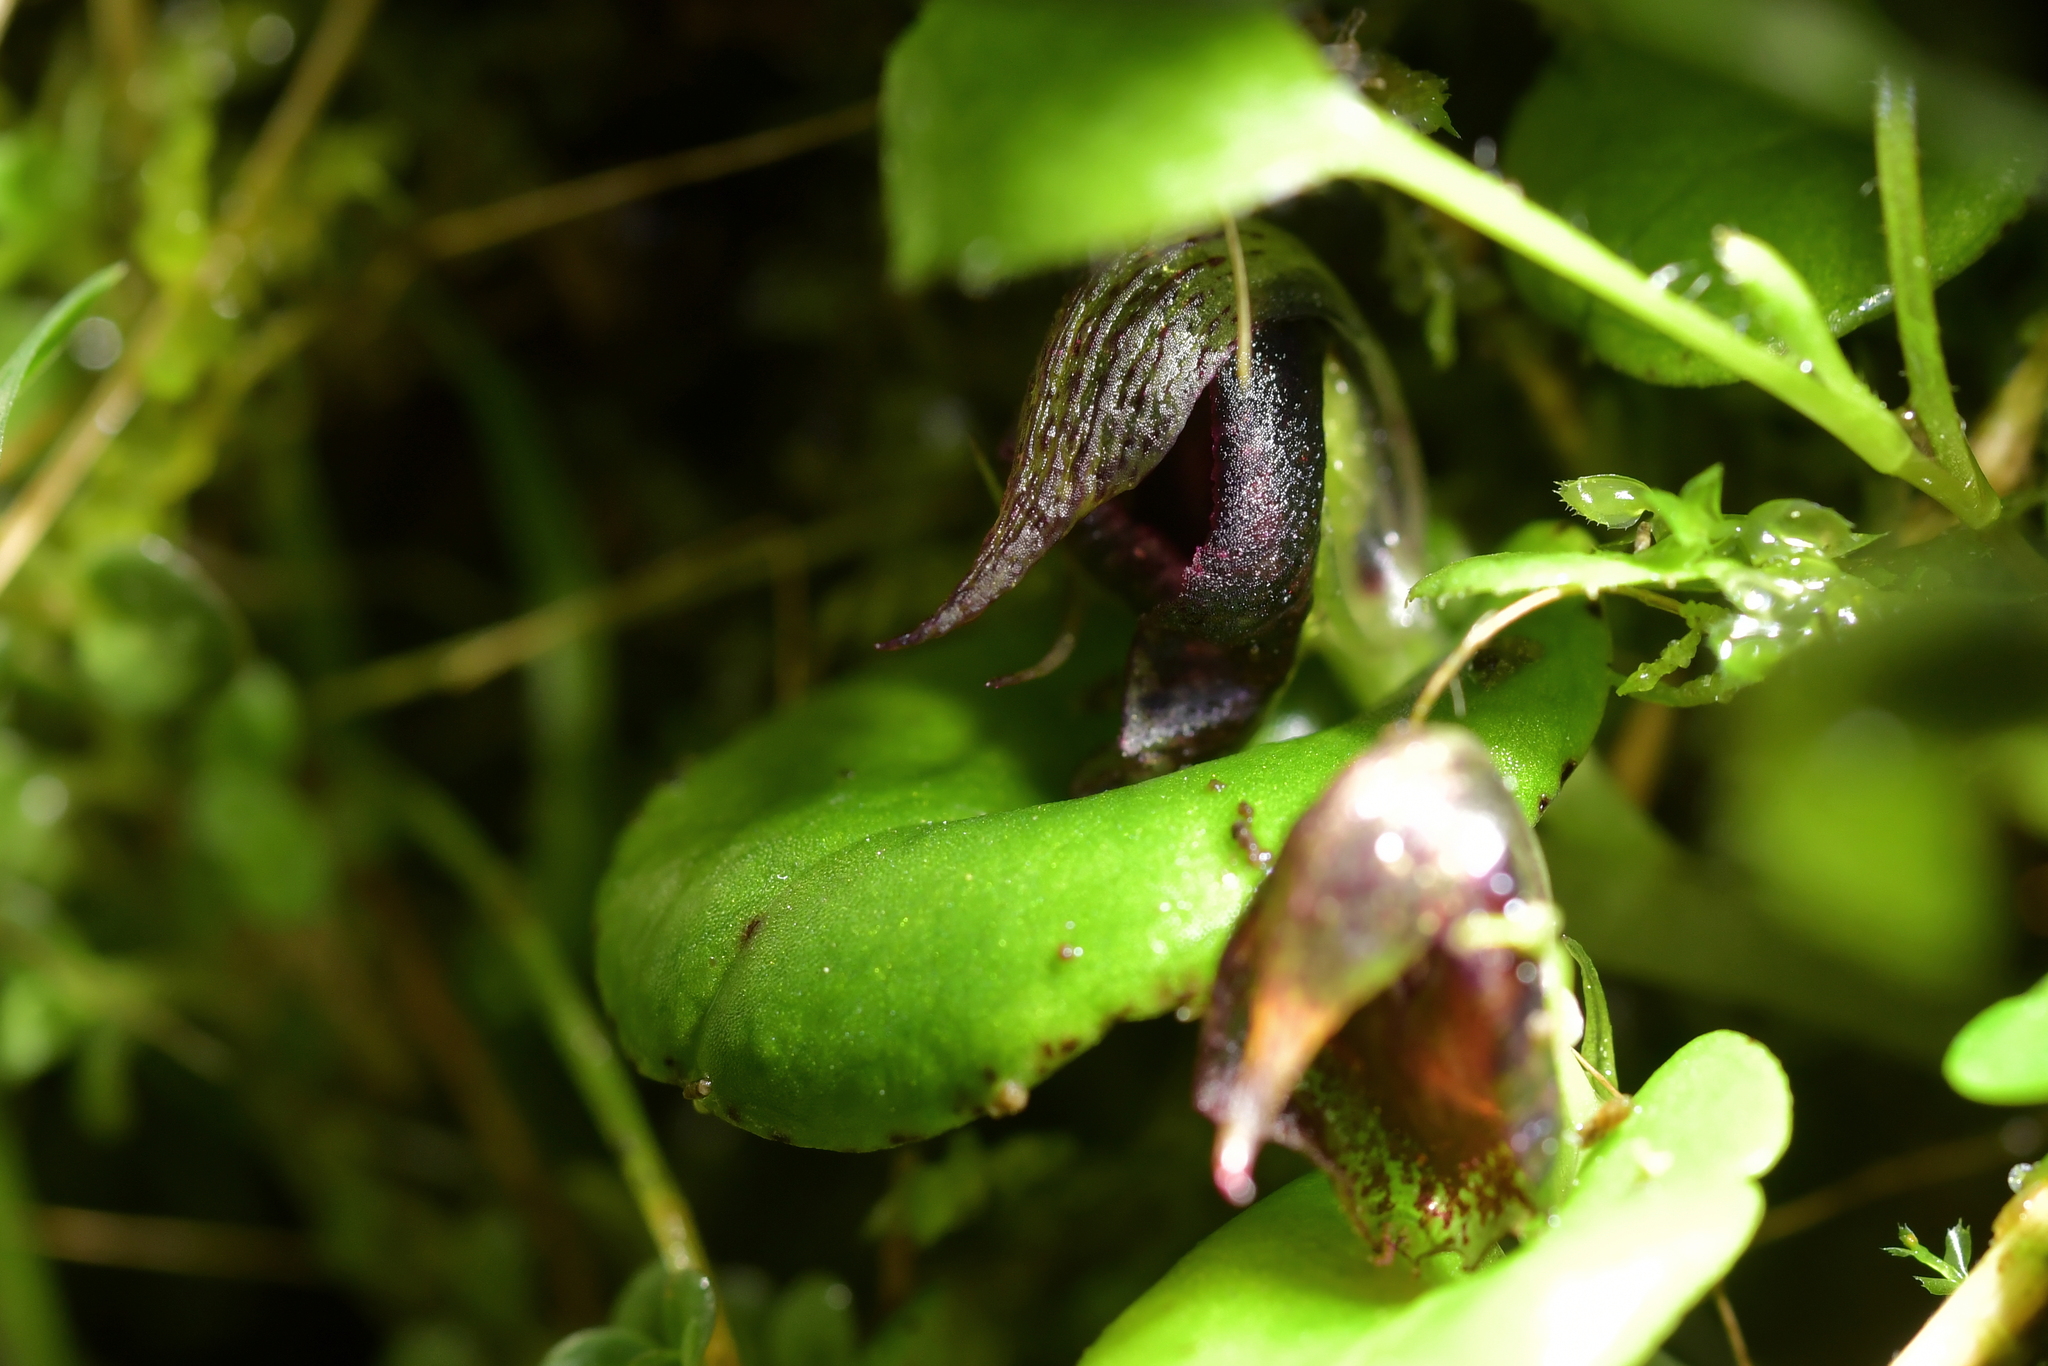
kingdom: Plantae
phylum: Tracheophyta
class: Liliopsida
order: Asparagales
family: Orchidaceae
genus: Corybas
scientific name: Corybas orbiculatus
